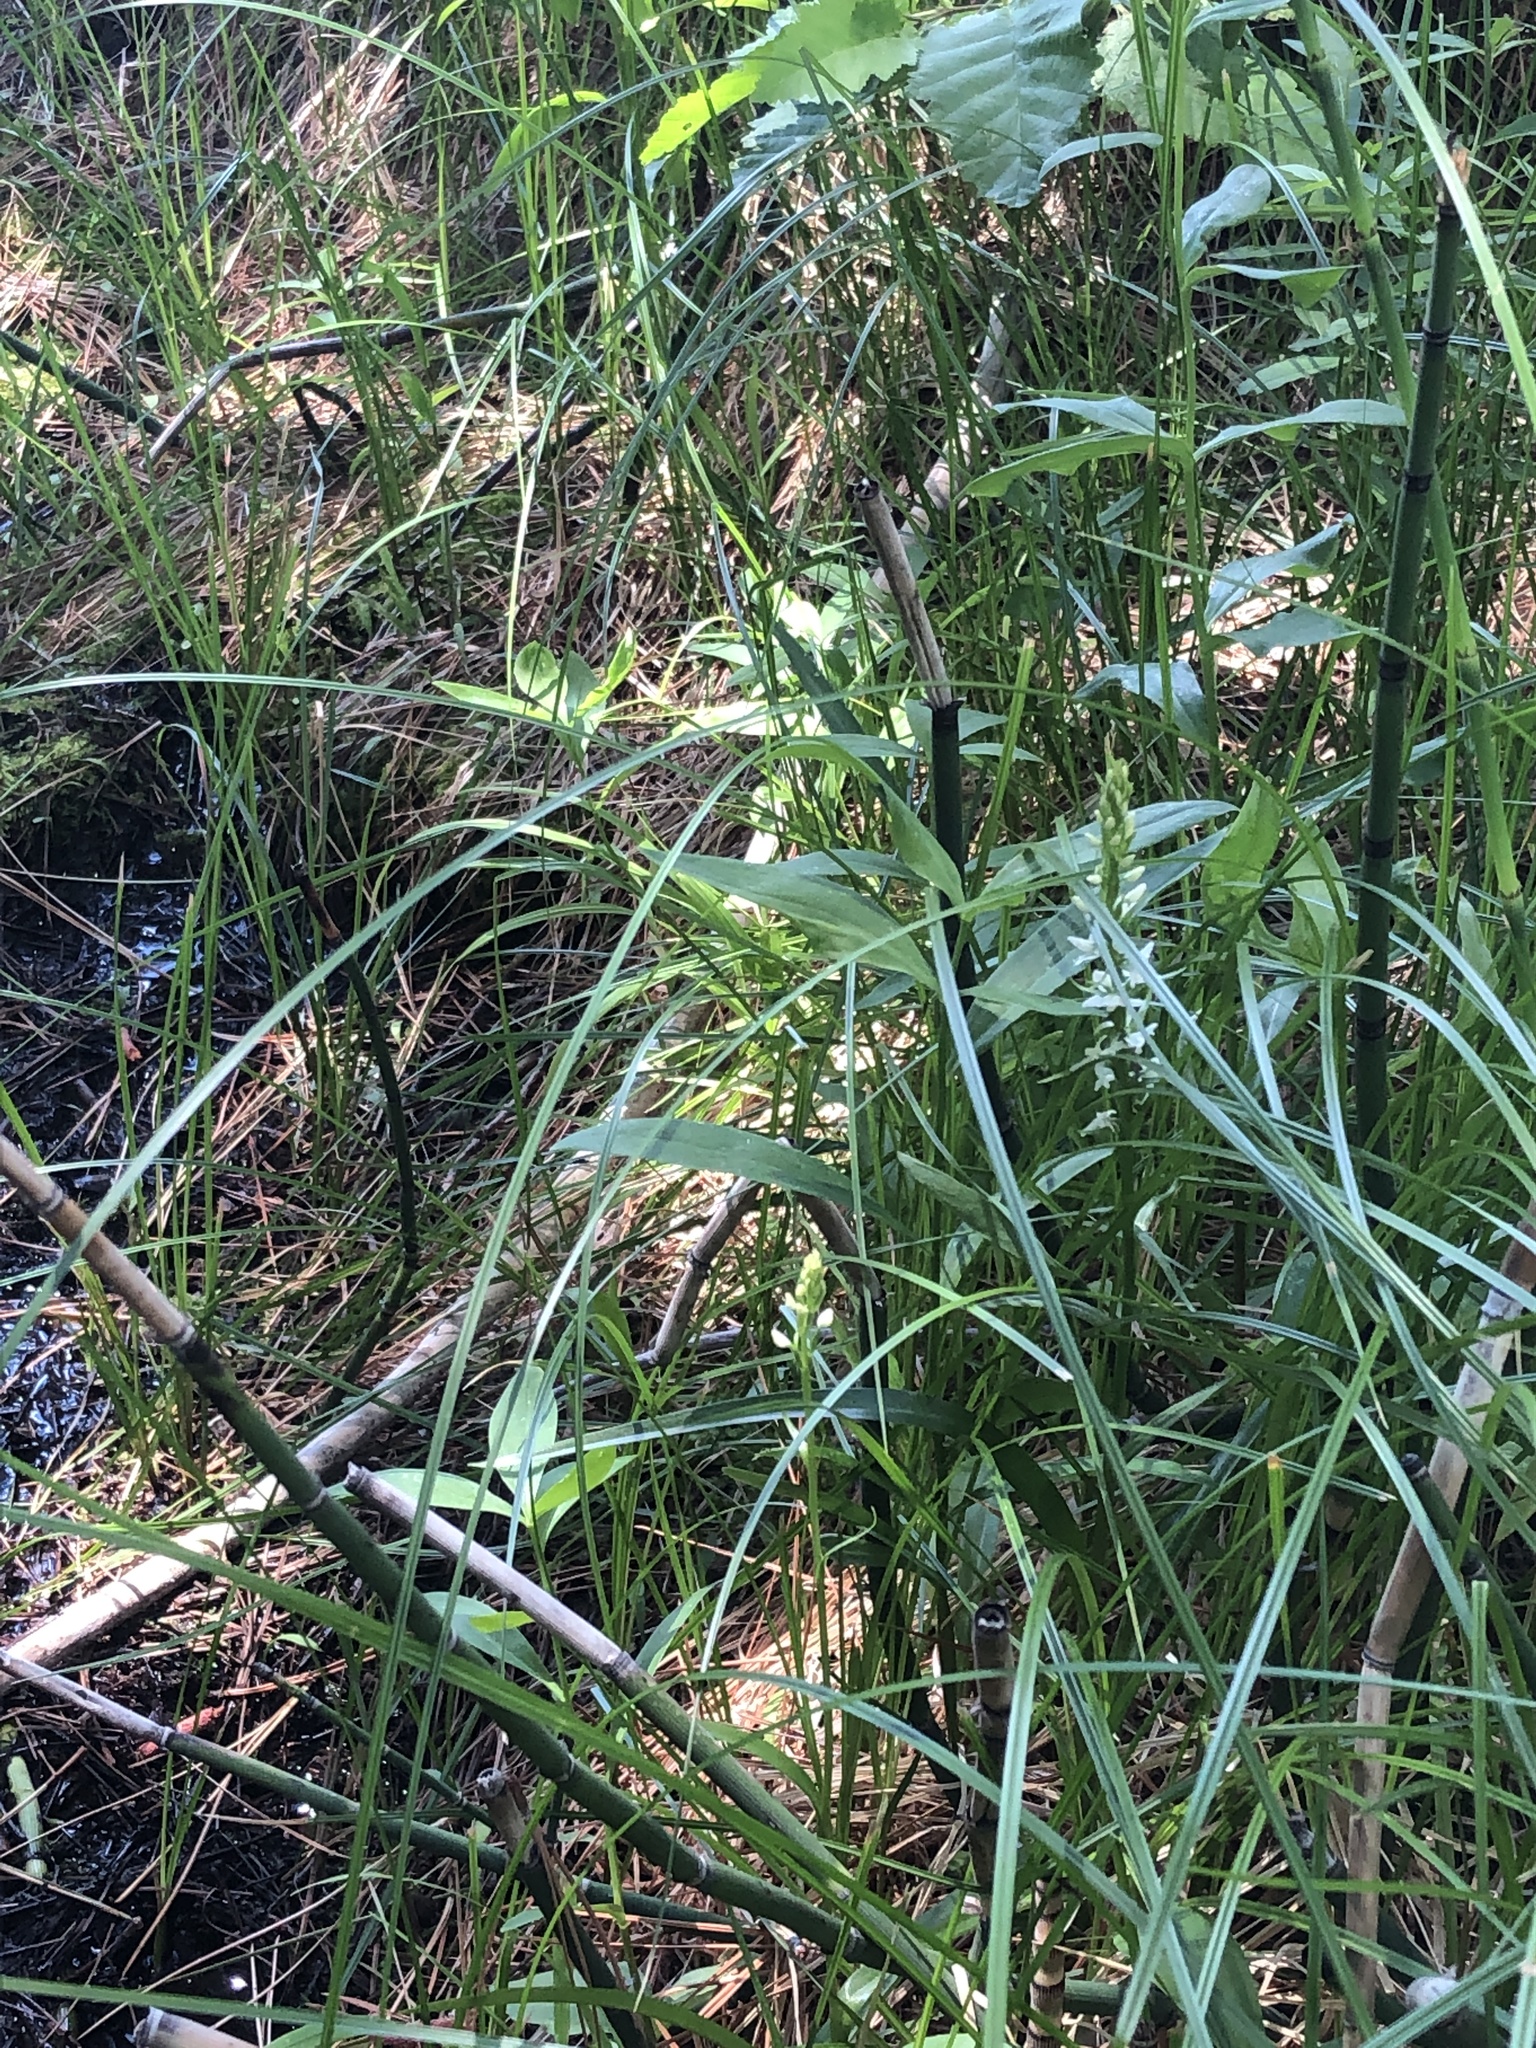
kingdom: Plantae
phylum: Tracheophyta
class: Liliopsida
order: Asparagales
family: Orchidaceae
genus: Platanthera
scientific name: Platanthera dilatata
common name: Bog candles
